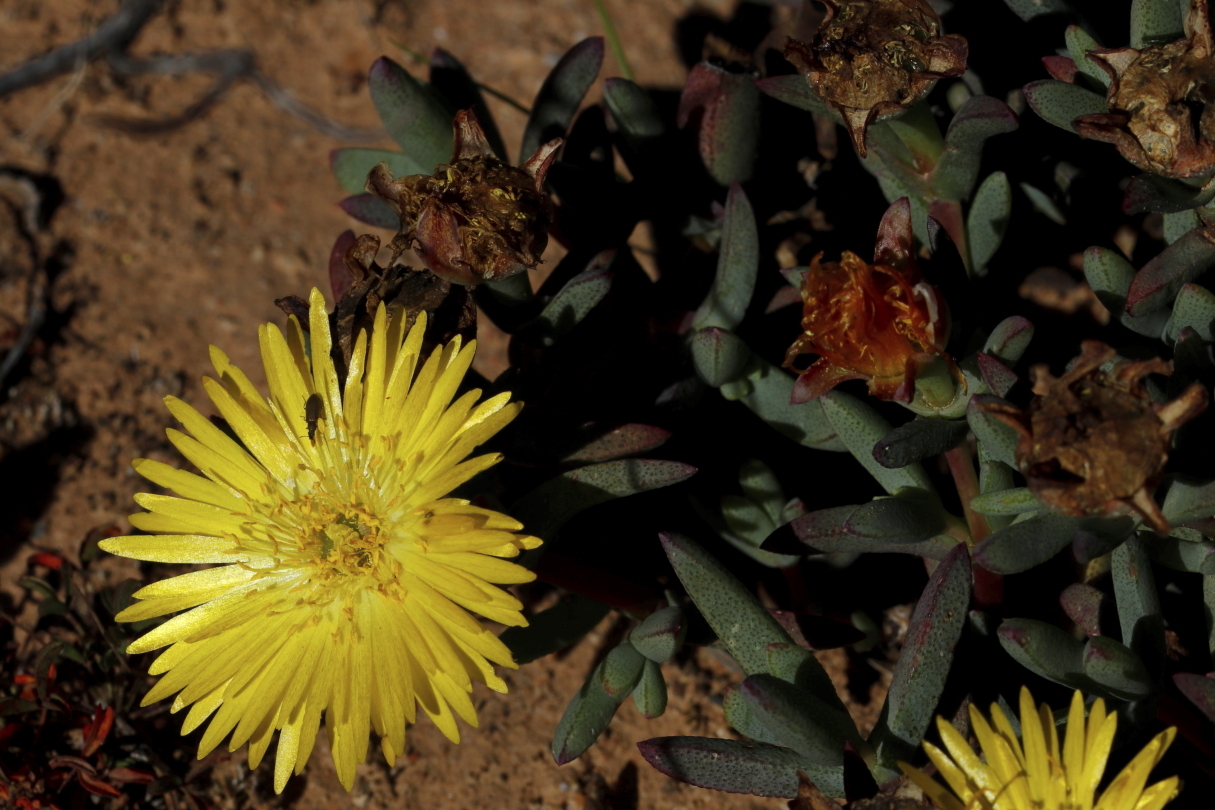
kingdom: Plantae
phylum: Tracheophyta
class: Magnoliopsida
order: Caryophyllales
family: Aizoaceae
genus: Lampranthus
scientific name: Lampranthus glaucus
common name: Noonflower
